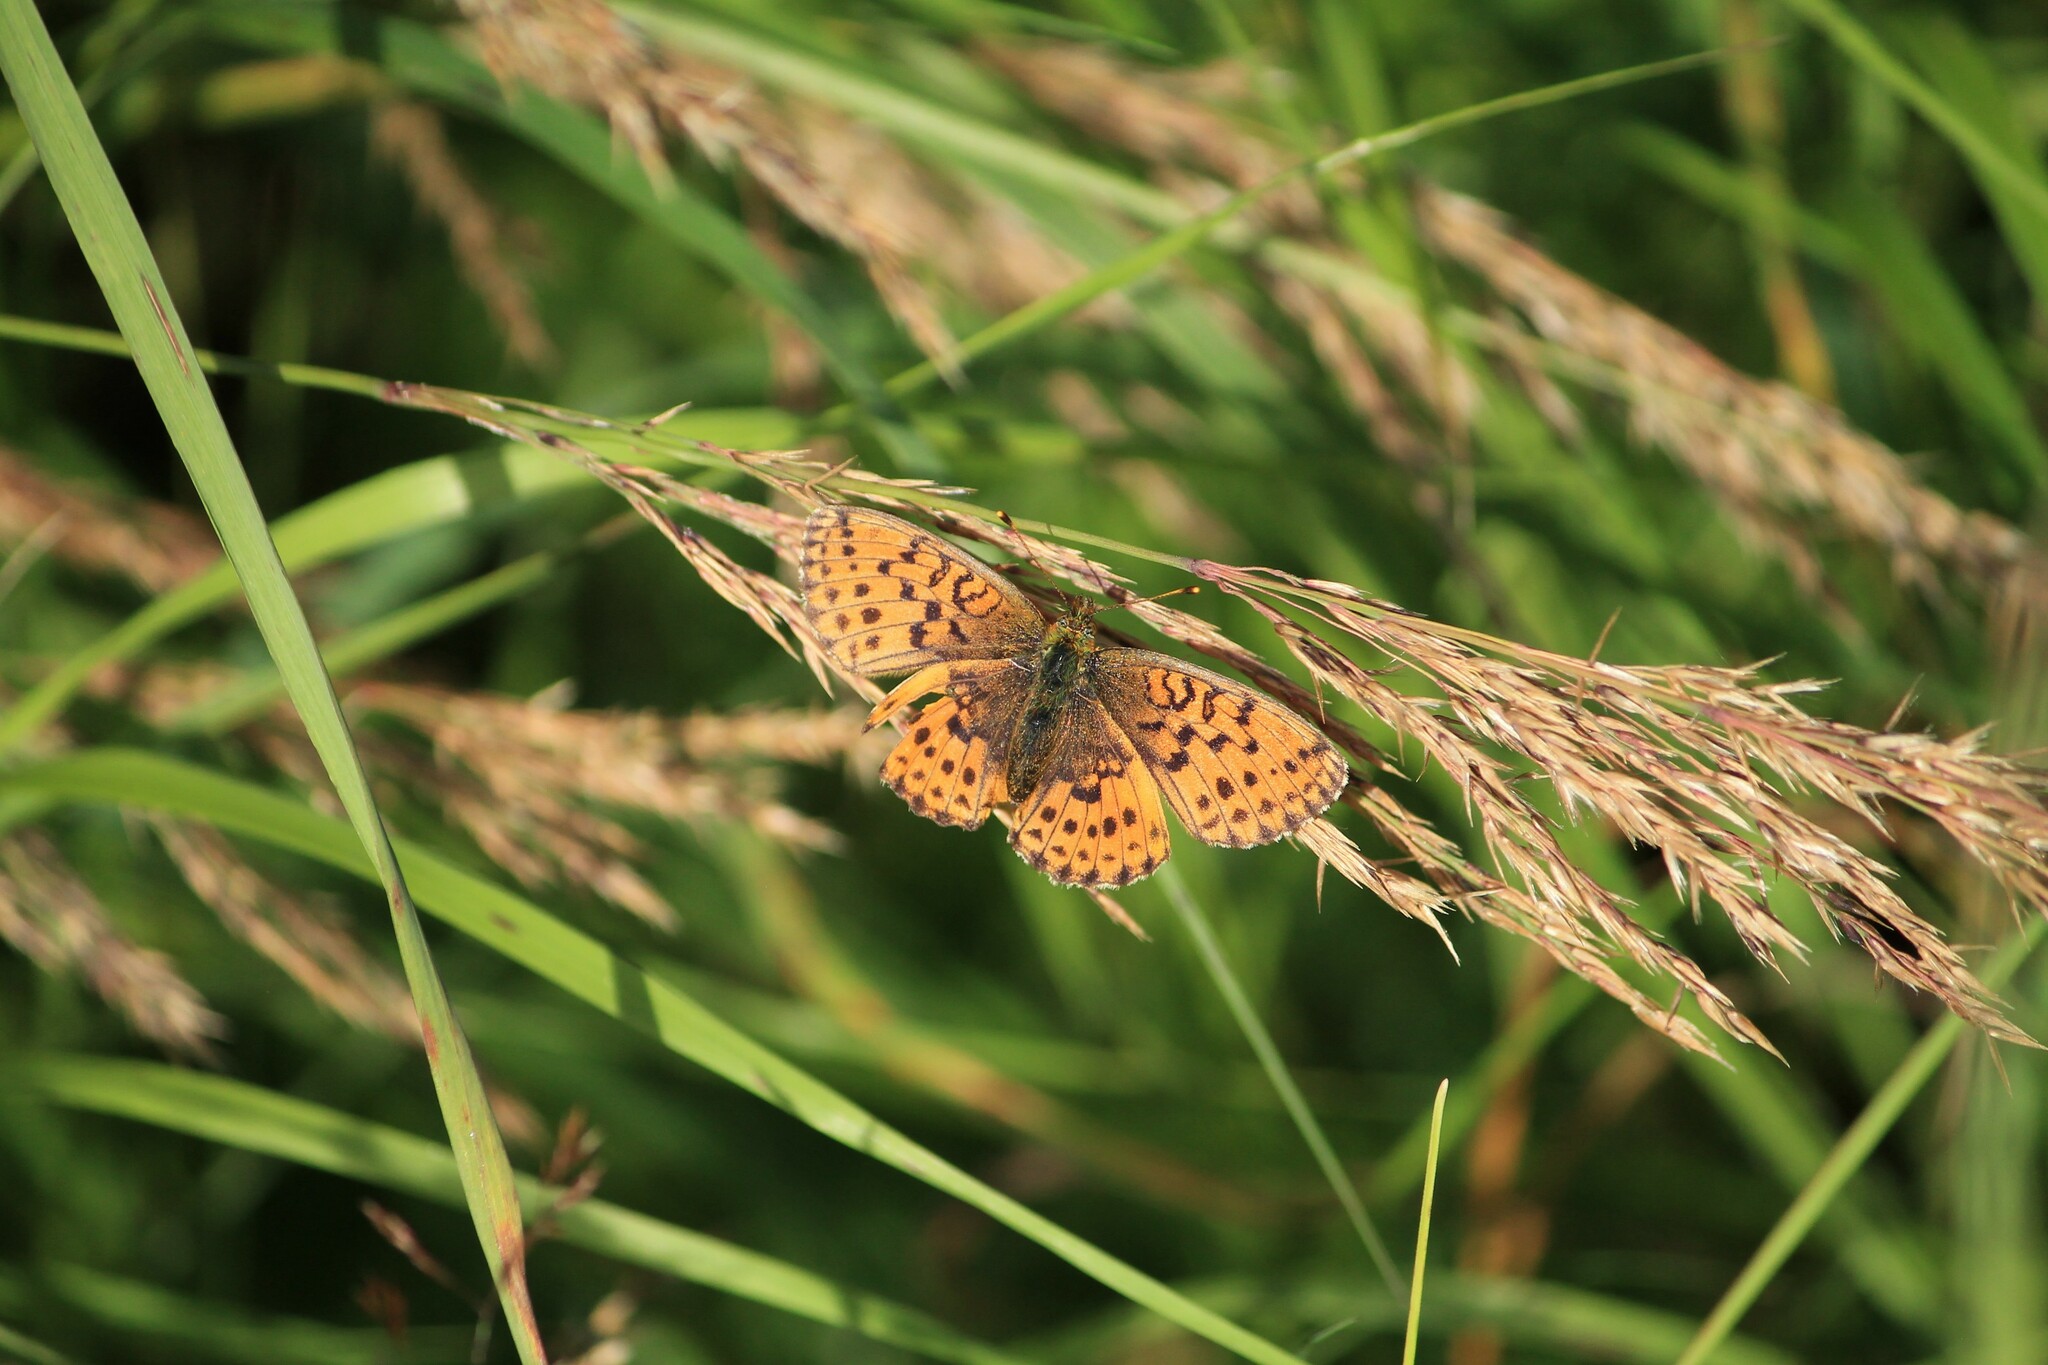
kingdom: Animalia
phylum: Arthropoda
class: Insecta
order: Lepidoptera
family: Nymphalidae
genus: Brenthis
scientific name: Brenthis ino
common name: Lesser marbled fritillary
